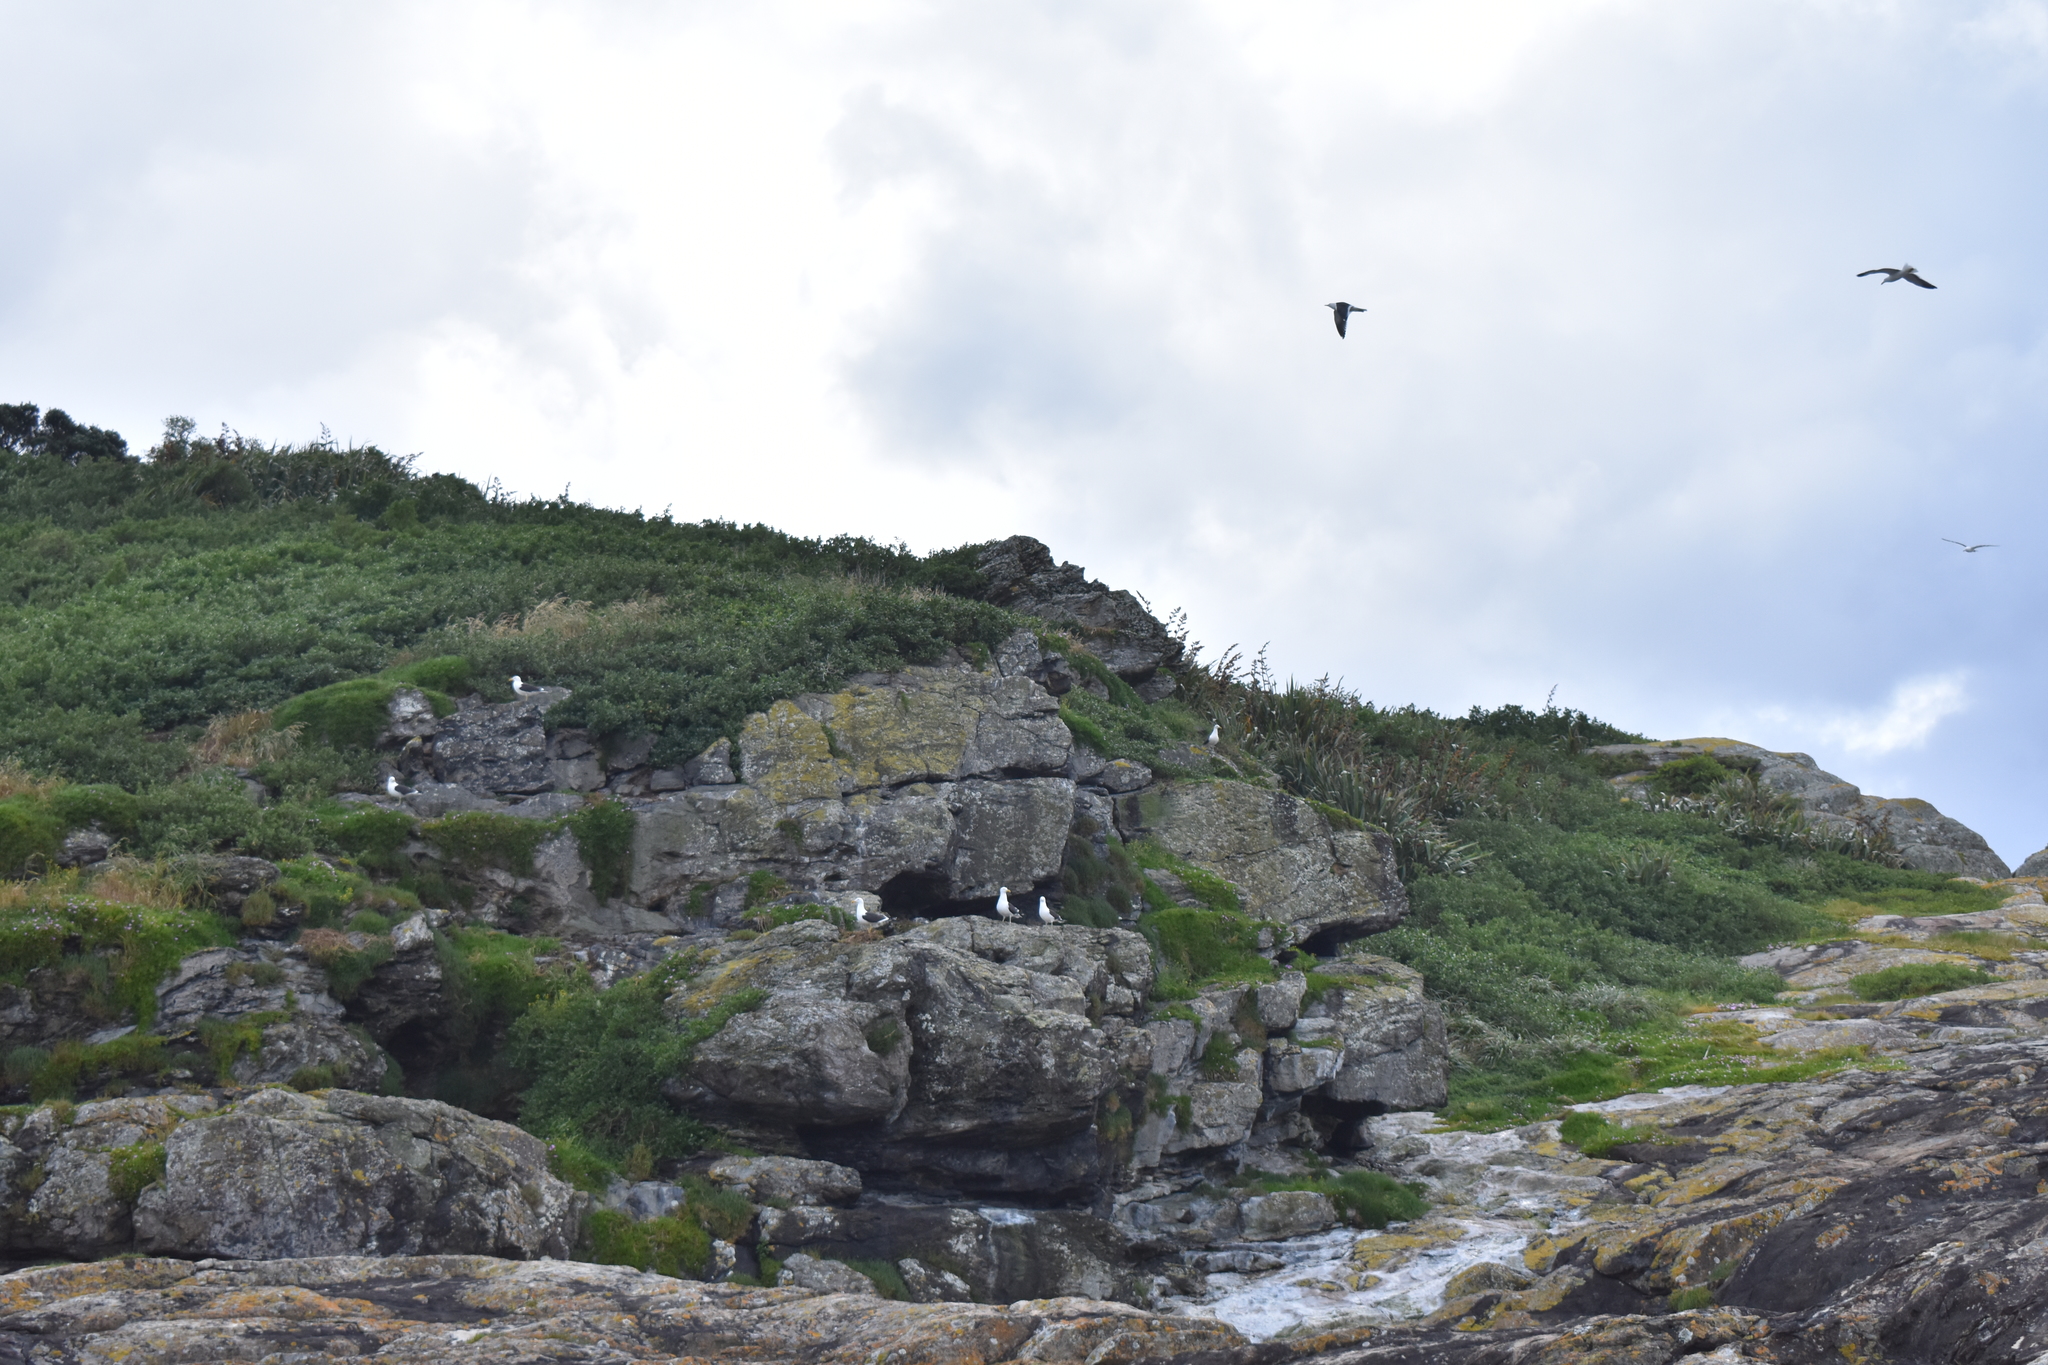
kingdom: Animalia
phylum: Chordata
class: Aves
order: Charadriiformes
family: Laridae
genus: Larus
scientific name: Larus dominicanus
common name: Kelp gull
